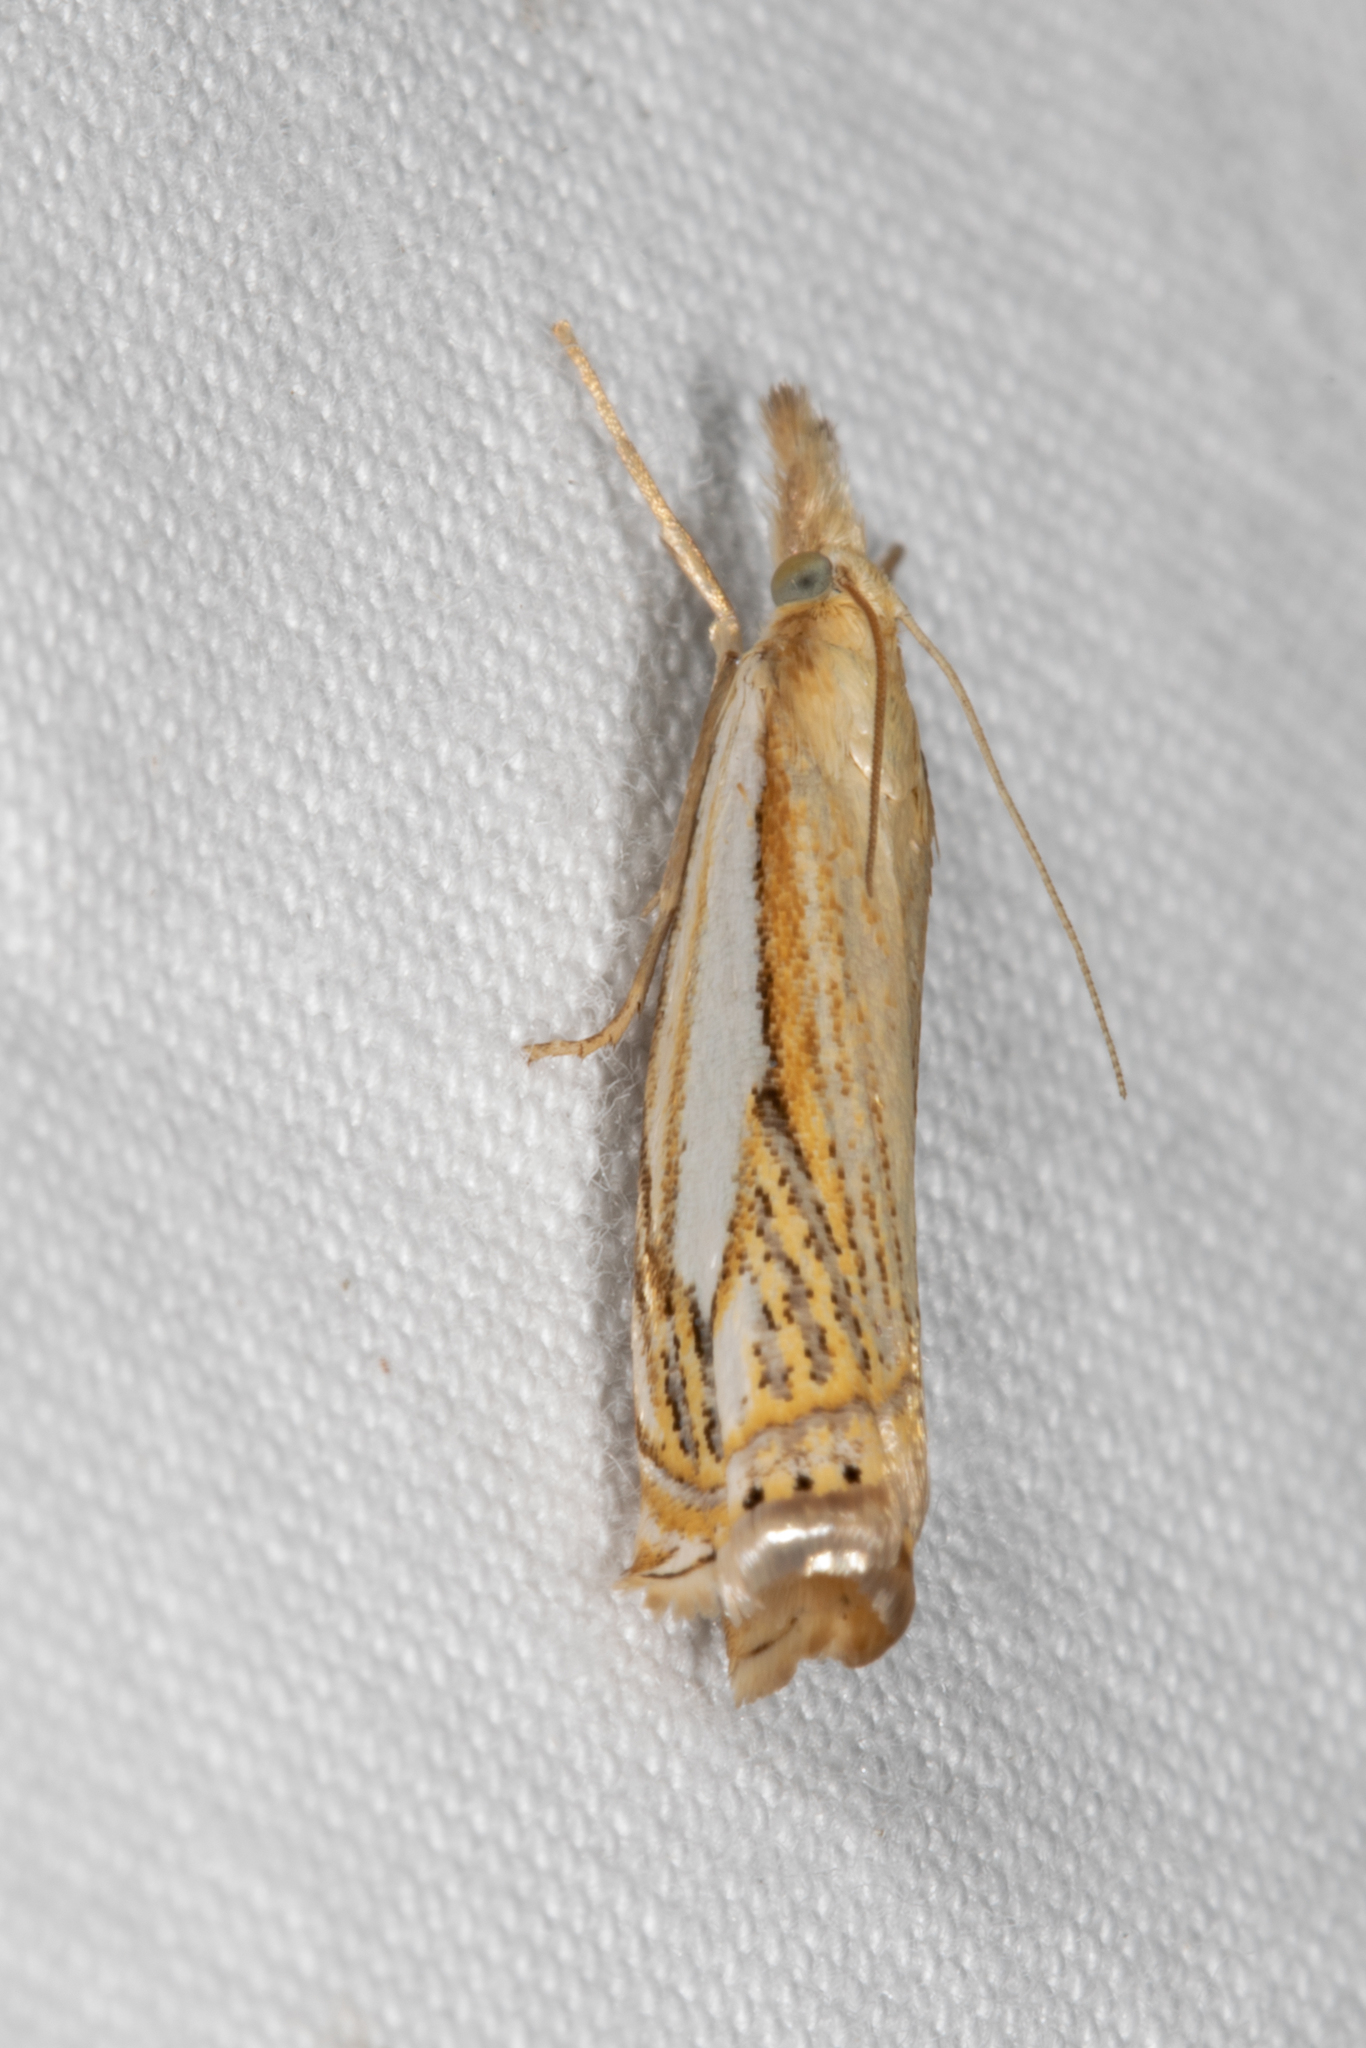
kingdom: Animalia
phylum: Arthropoda
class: Insecta
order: Lepidoptera
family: Crambidae
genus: Crambus
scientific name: Crambus saltuellus
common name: Pasture grass-veneer
